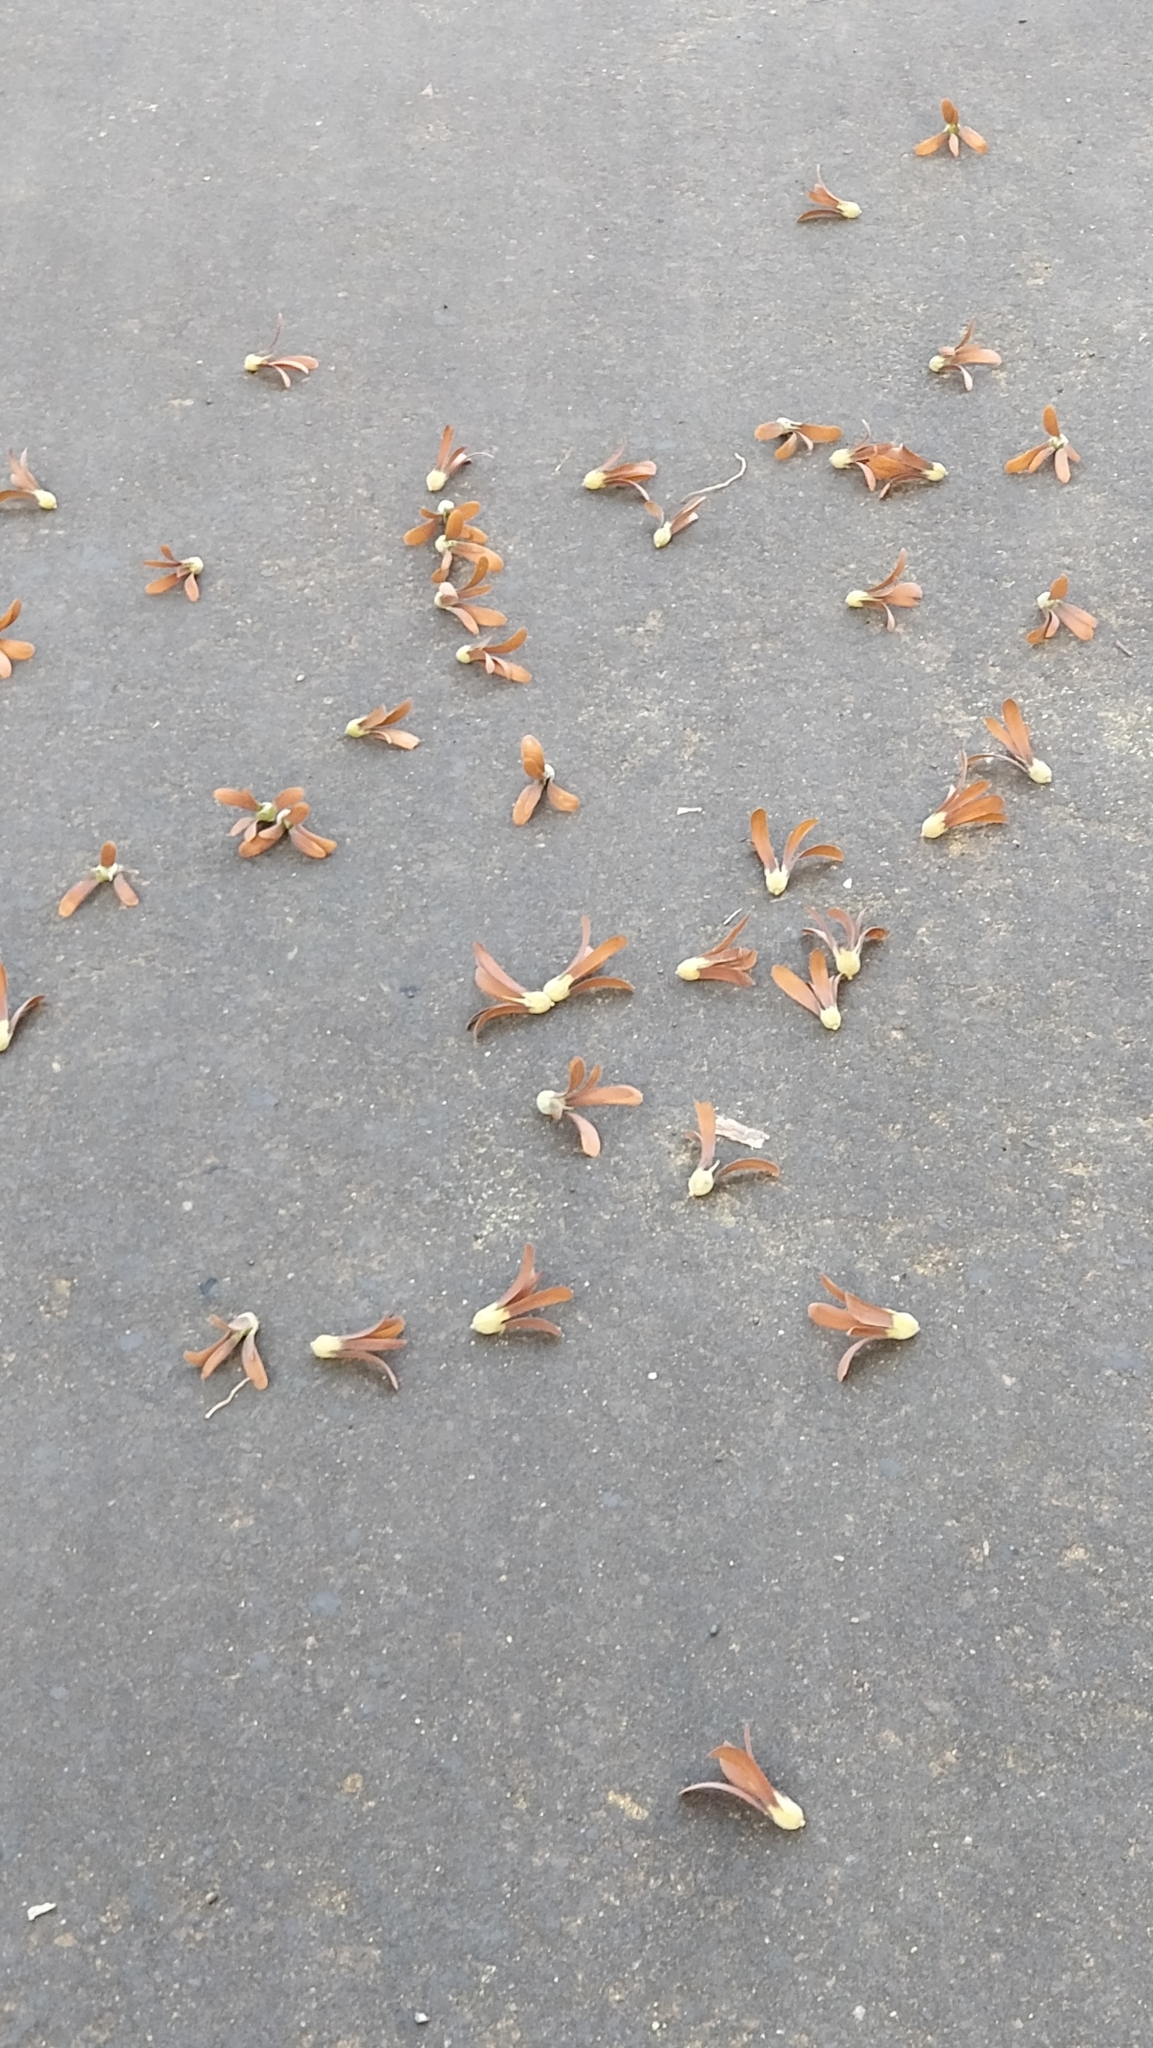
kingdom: Plantae
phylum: Tracheophyta
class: Magnoliopsida
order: Malvales
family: Dipterocarpaceae
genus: Shorea
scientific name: Shorea robusta
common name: Saltree
